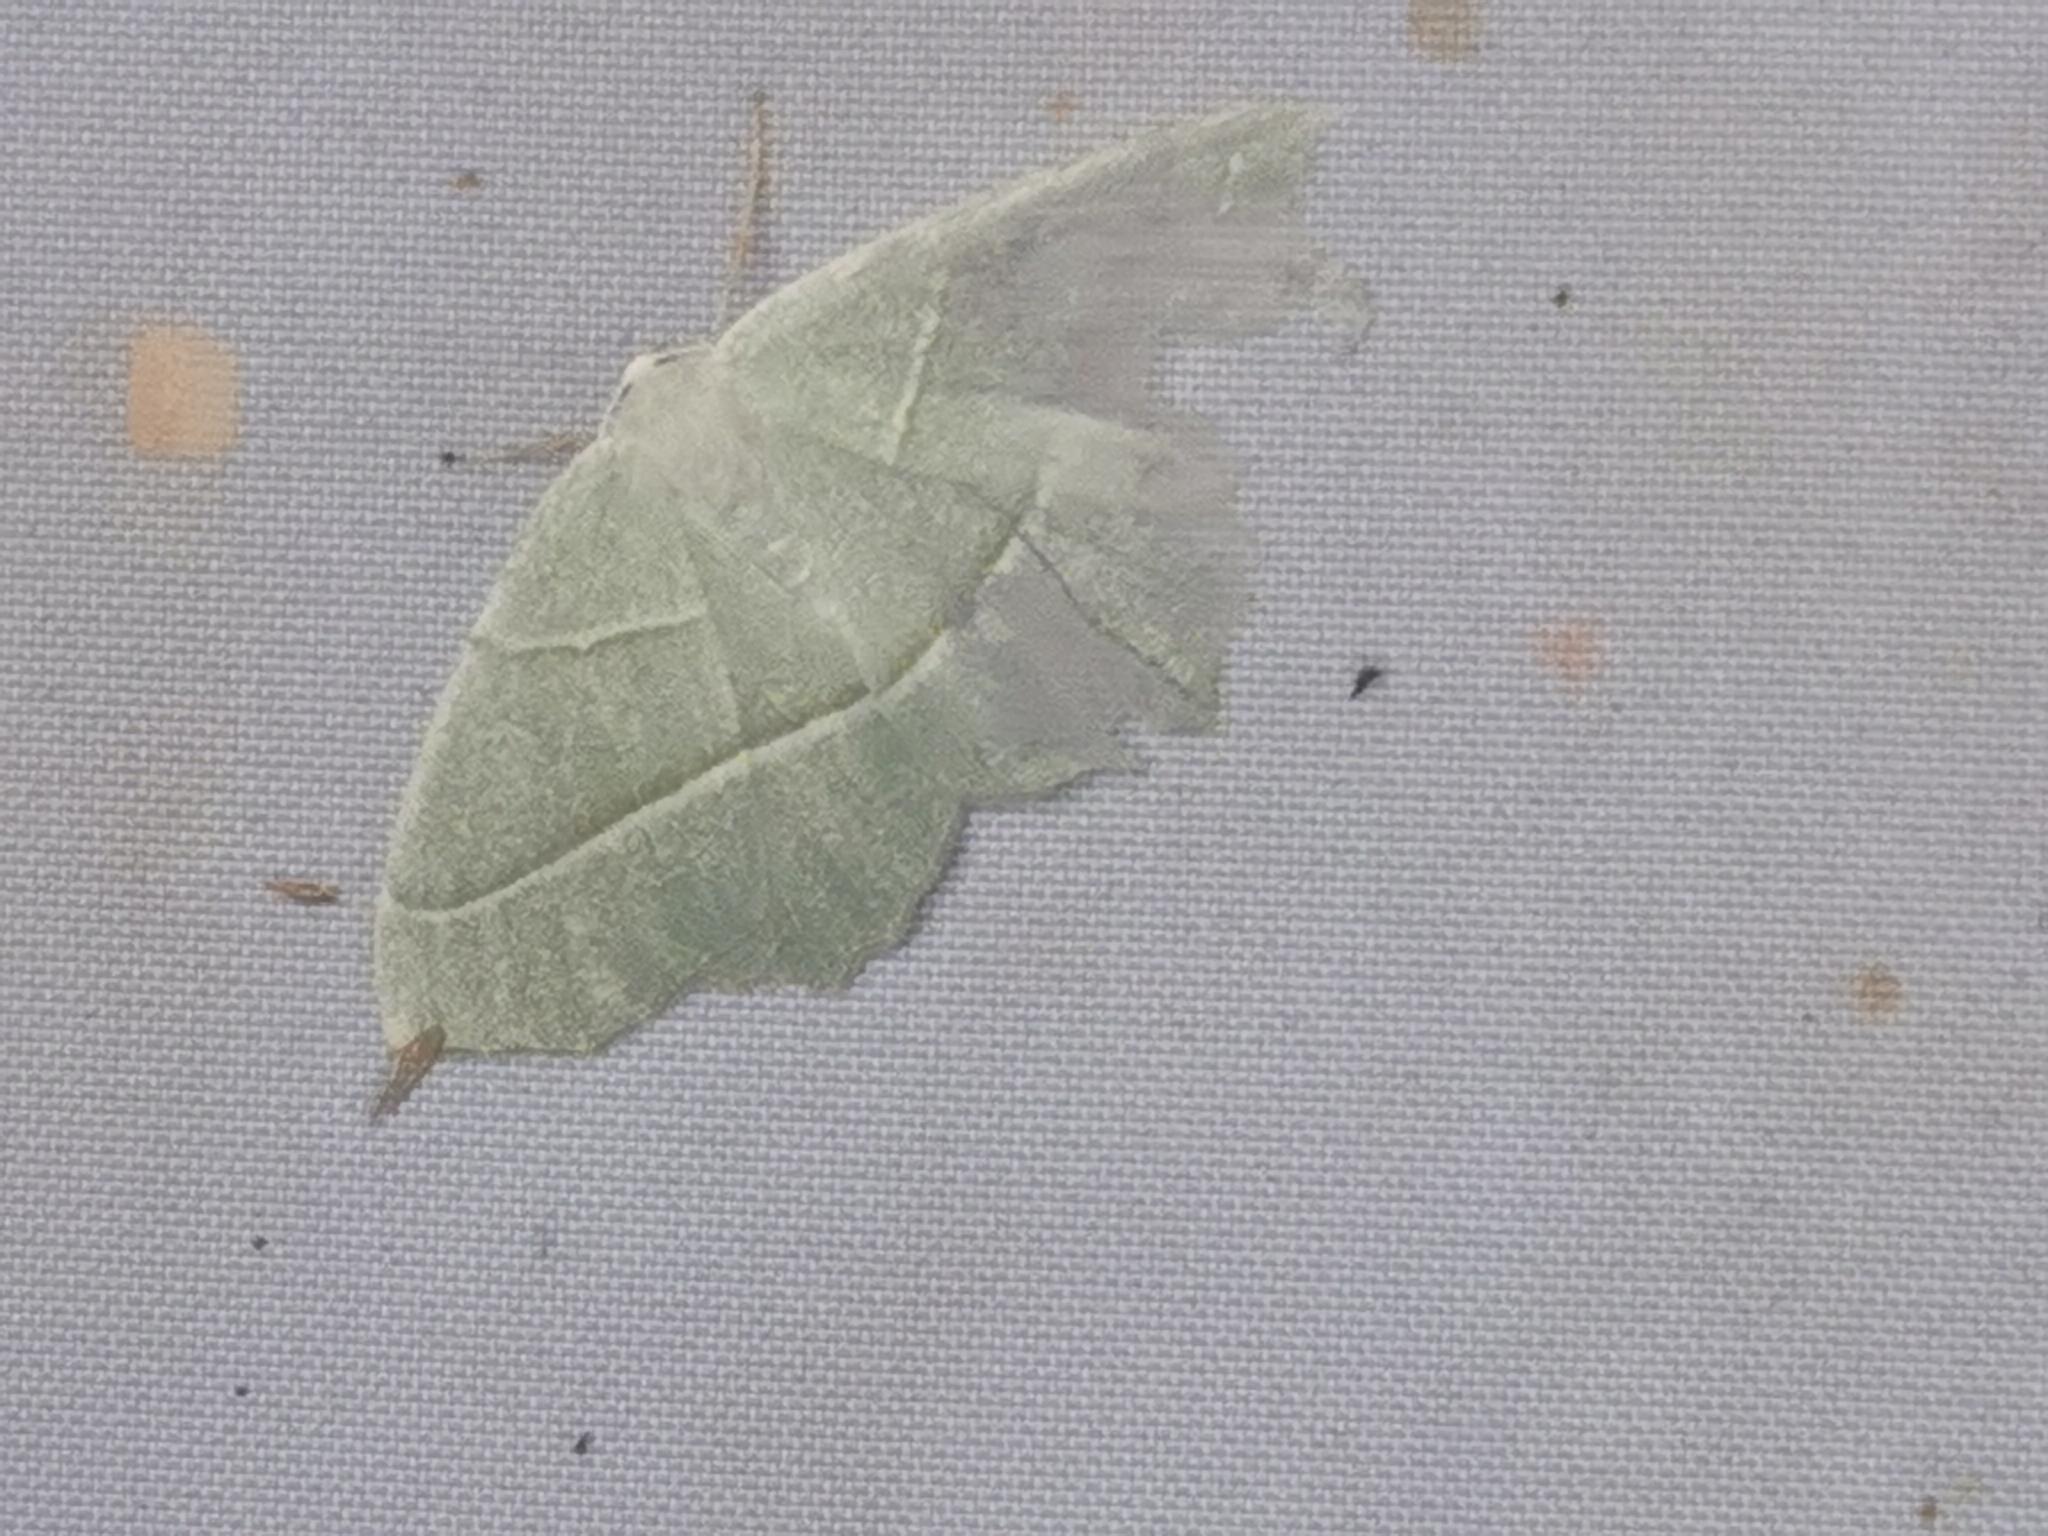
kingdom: Animalia
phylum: Arthropoda
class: Insecta
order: Lepidoptera
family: Geometridae
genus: Campaea
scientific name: Campaea margaritaria
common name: Light emerald
